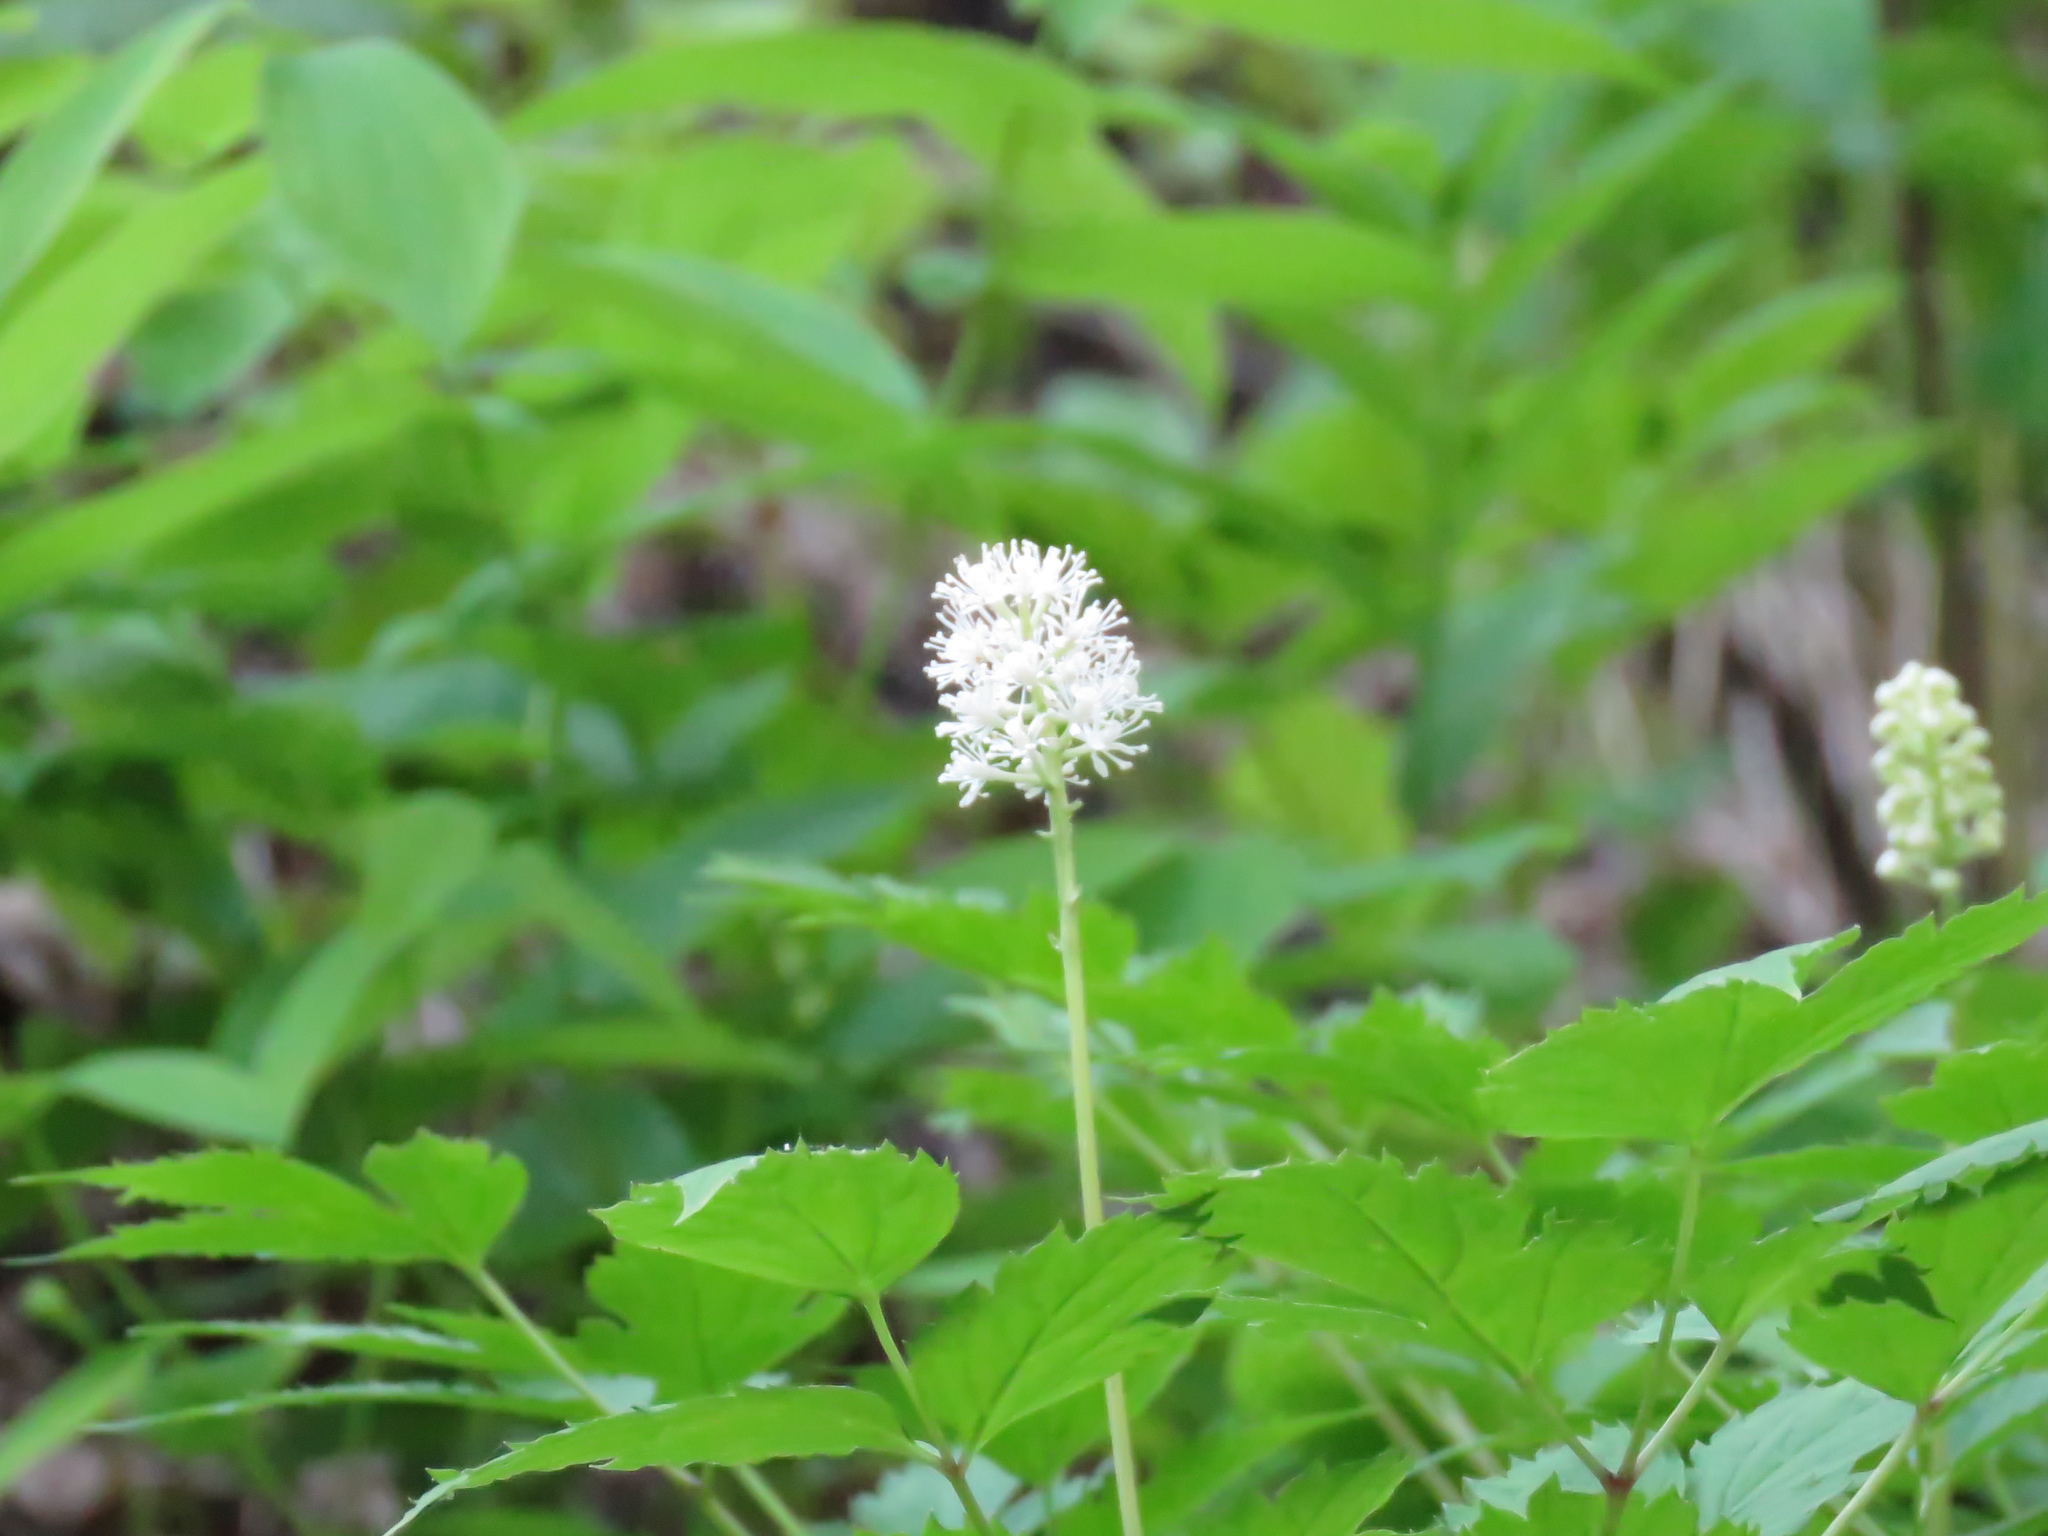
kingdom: Plantae
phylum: Tracheophyta
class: Magnoliopsida
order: Ranunculales
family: Ranunculaceae
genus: Actaea
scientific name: Actaea pachypoda
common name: Doll's-eyes
